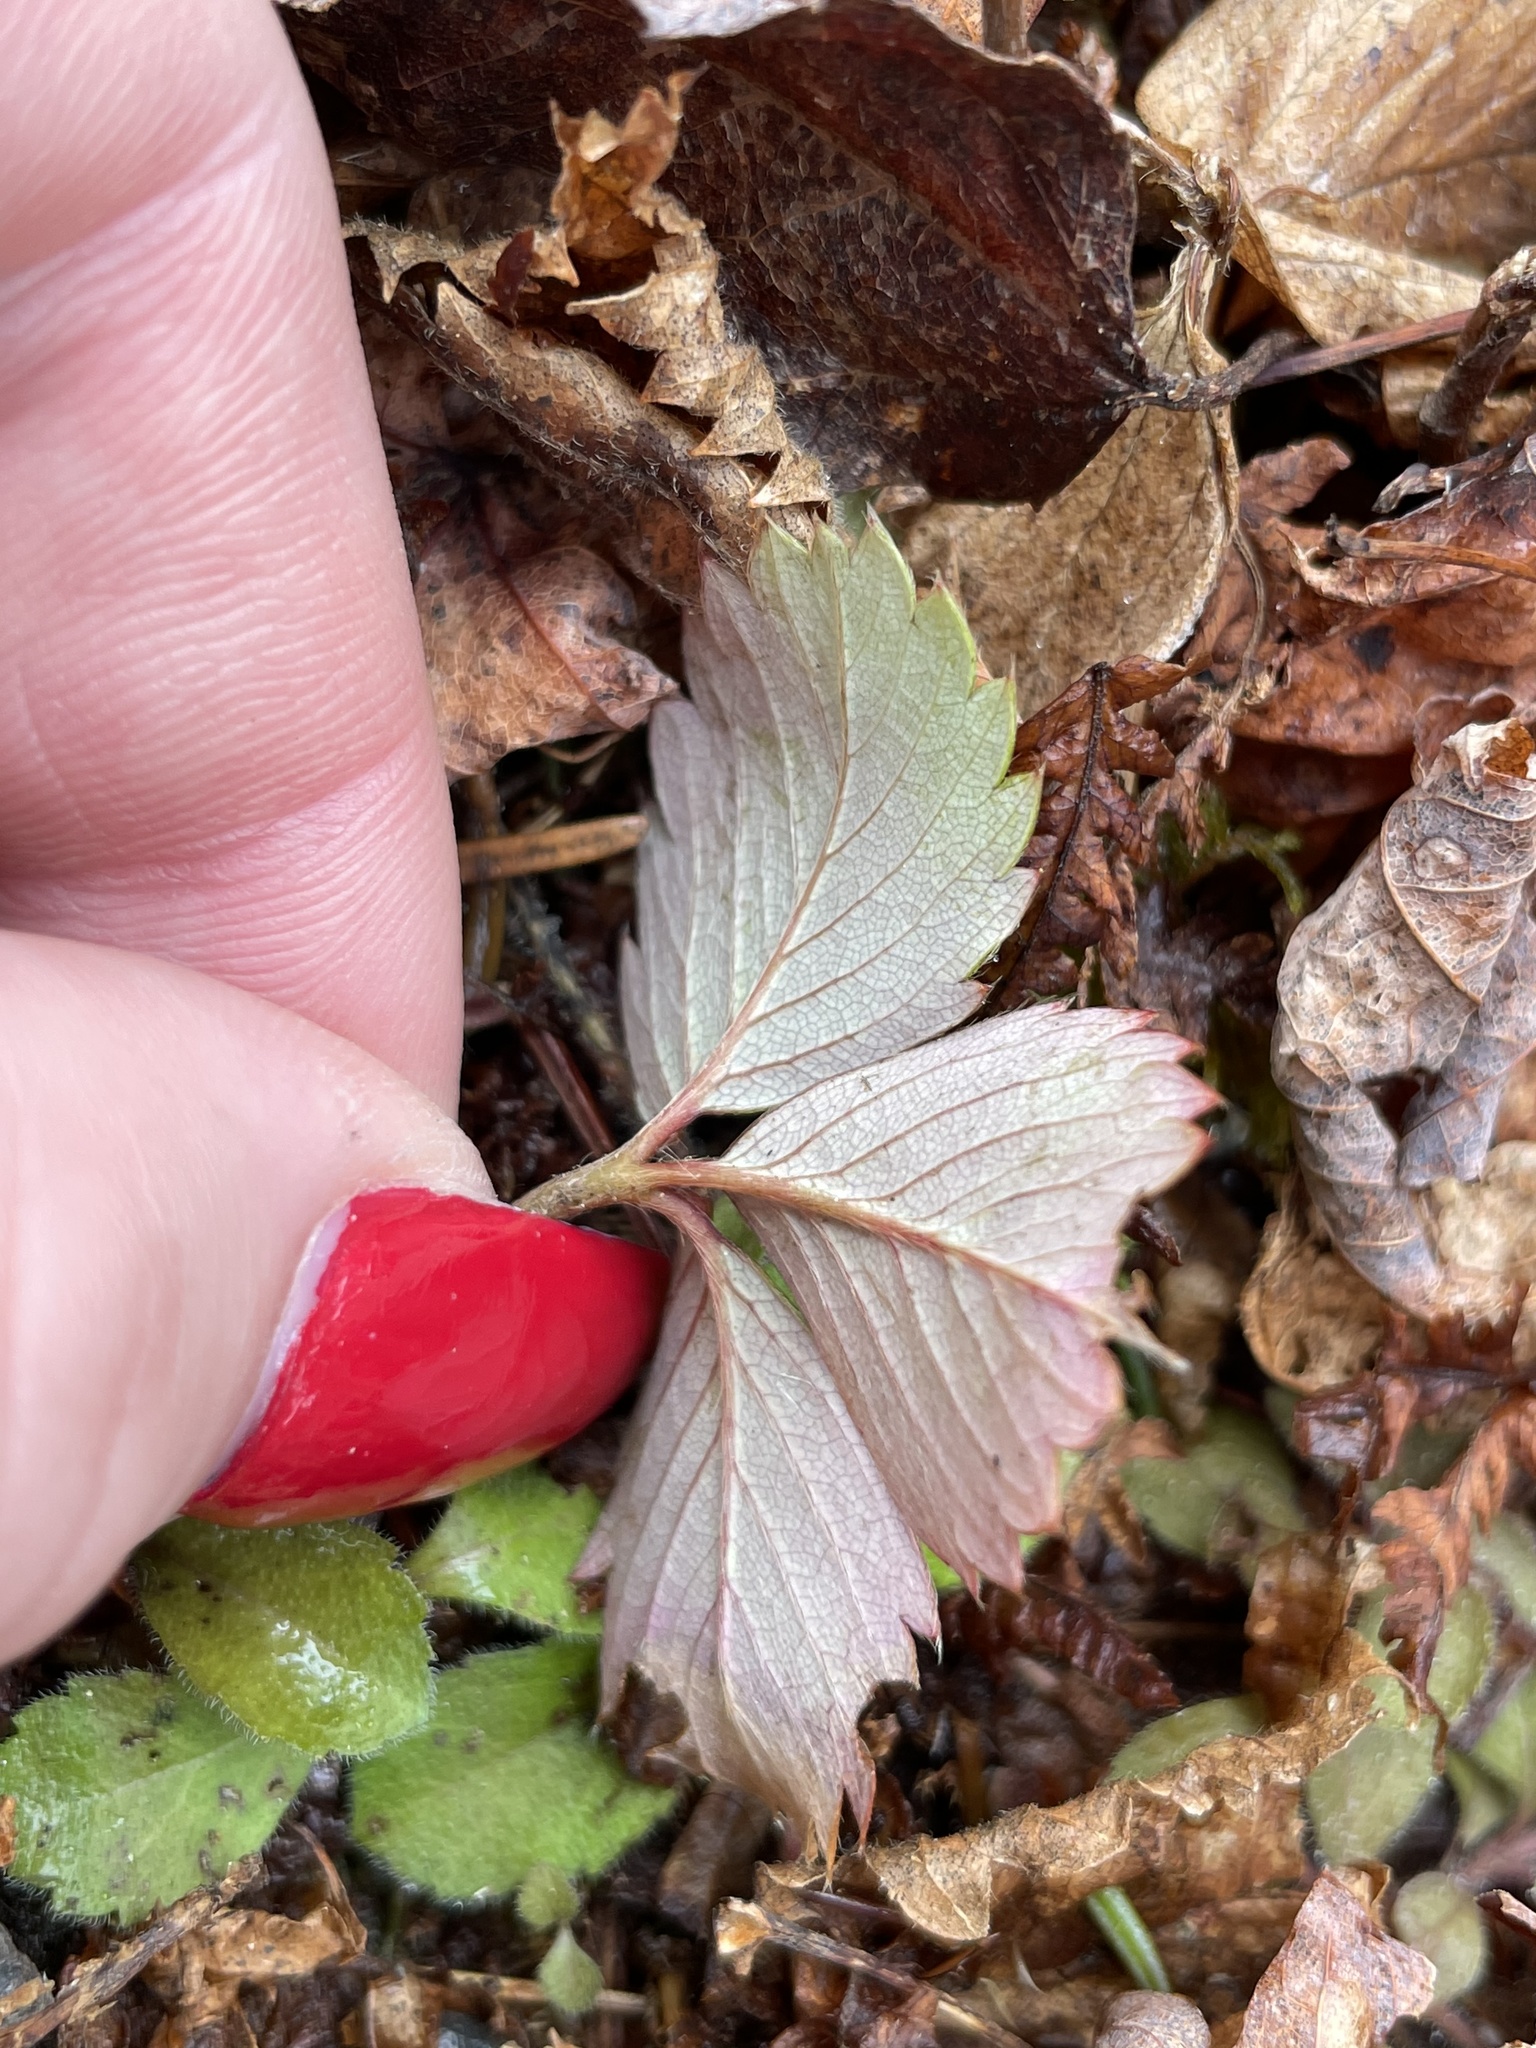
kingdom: Plantae
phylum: Tracheophyta
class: Magnoliopsida
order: Rosales
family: Rosaceae
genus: Fragaria
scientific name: Fragaria virginiana
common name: Thickleaved wild strawberry
